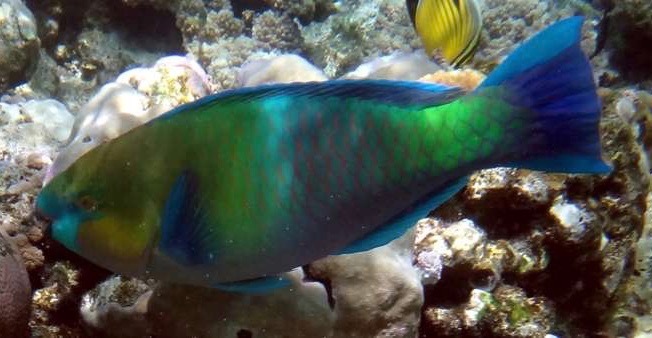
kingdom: Animalia
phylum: Chordata
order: Perciformes
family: Scaridae
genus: Scarus
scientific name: Scarus ferrugineus
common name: Rusty parrotfish
